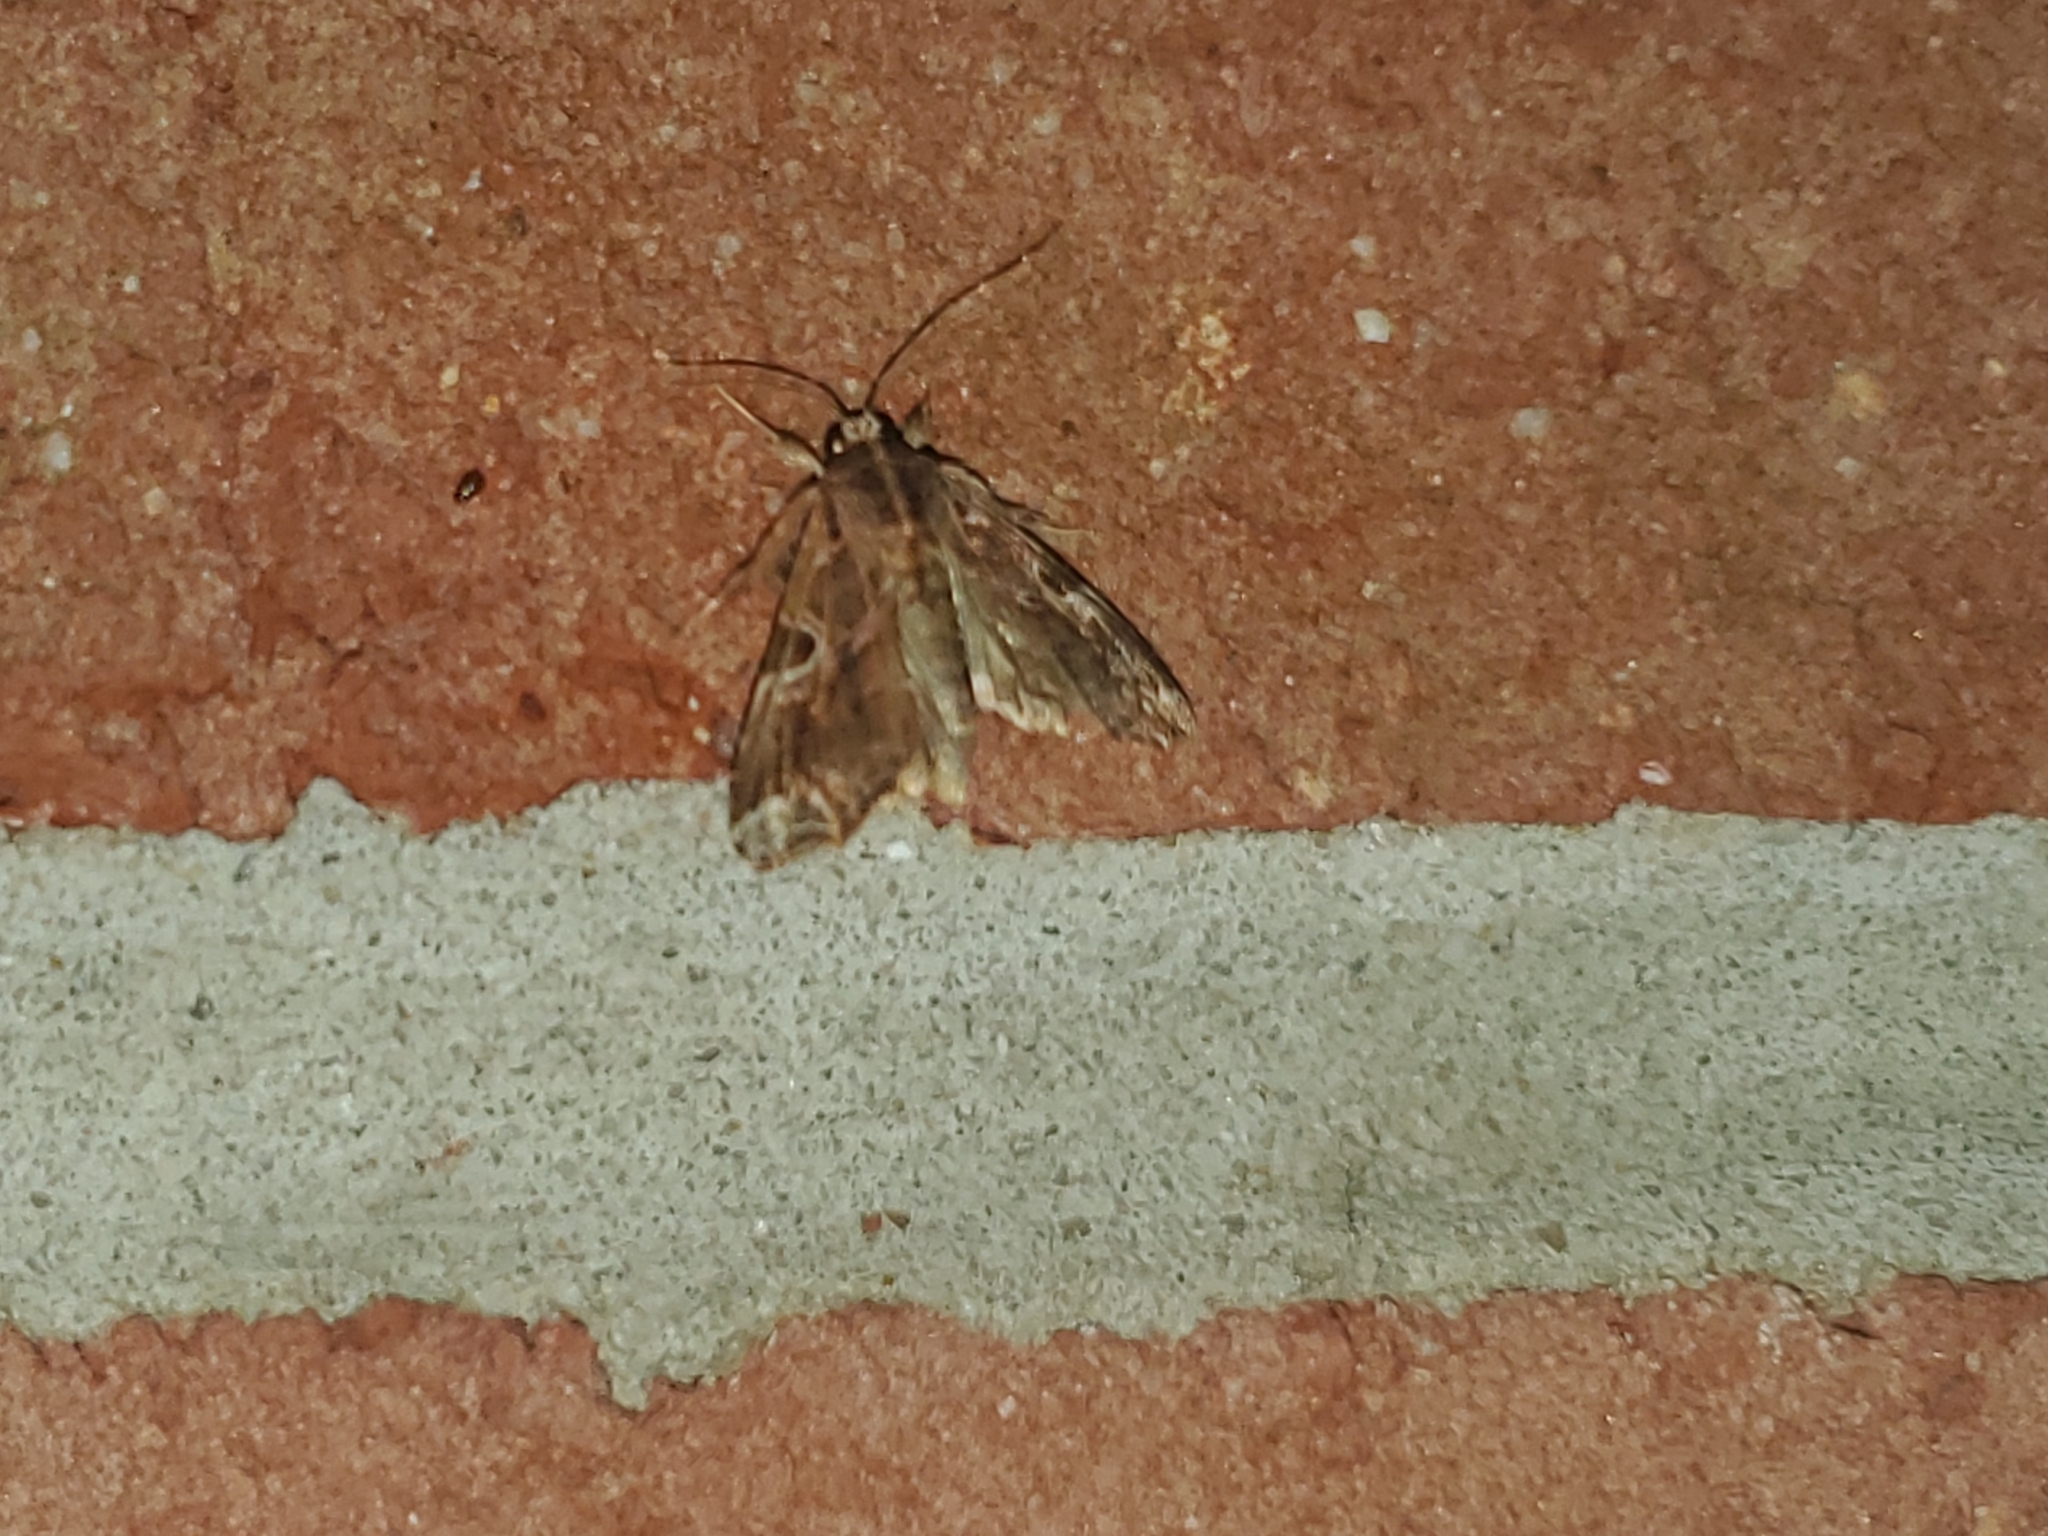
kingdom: Animalia
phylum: Arthropoda
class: Insecta
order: Lepidoptera
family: Noctuidae
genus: Callopistria
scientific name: Callopistria floridensis
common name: Florida fern moth
